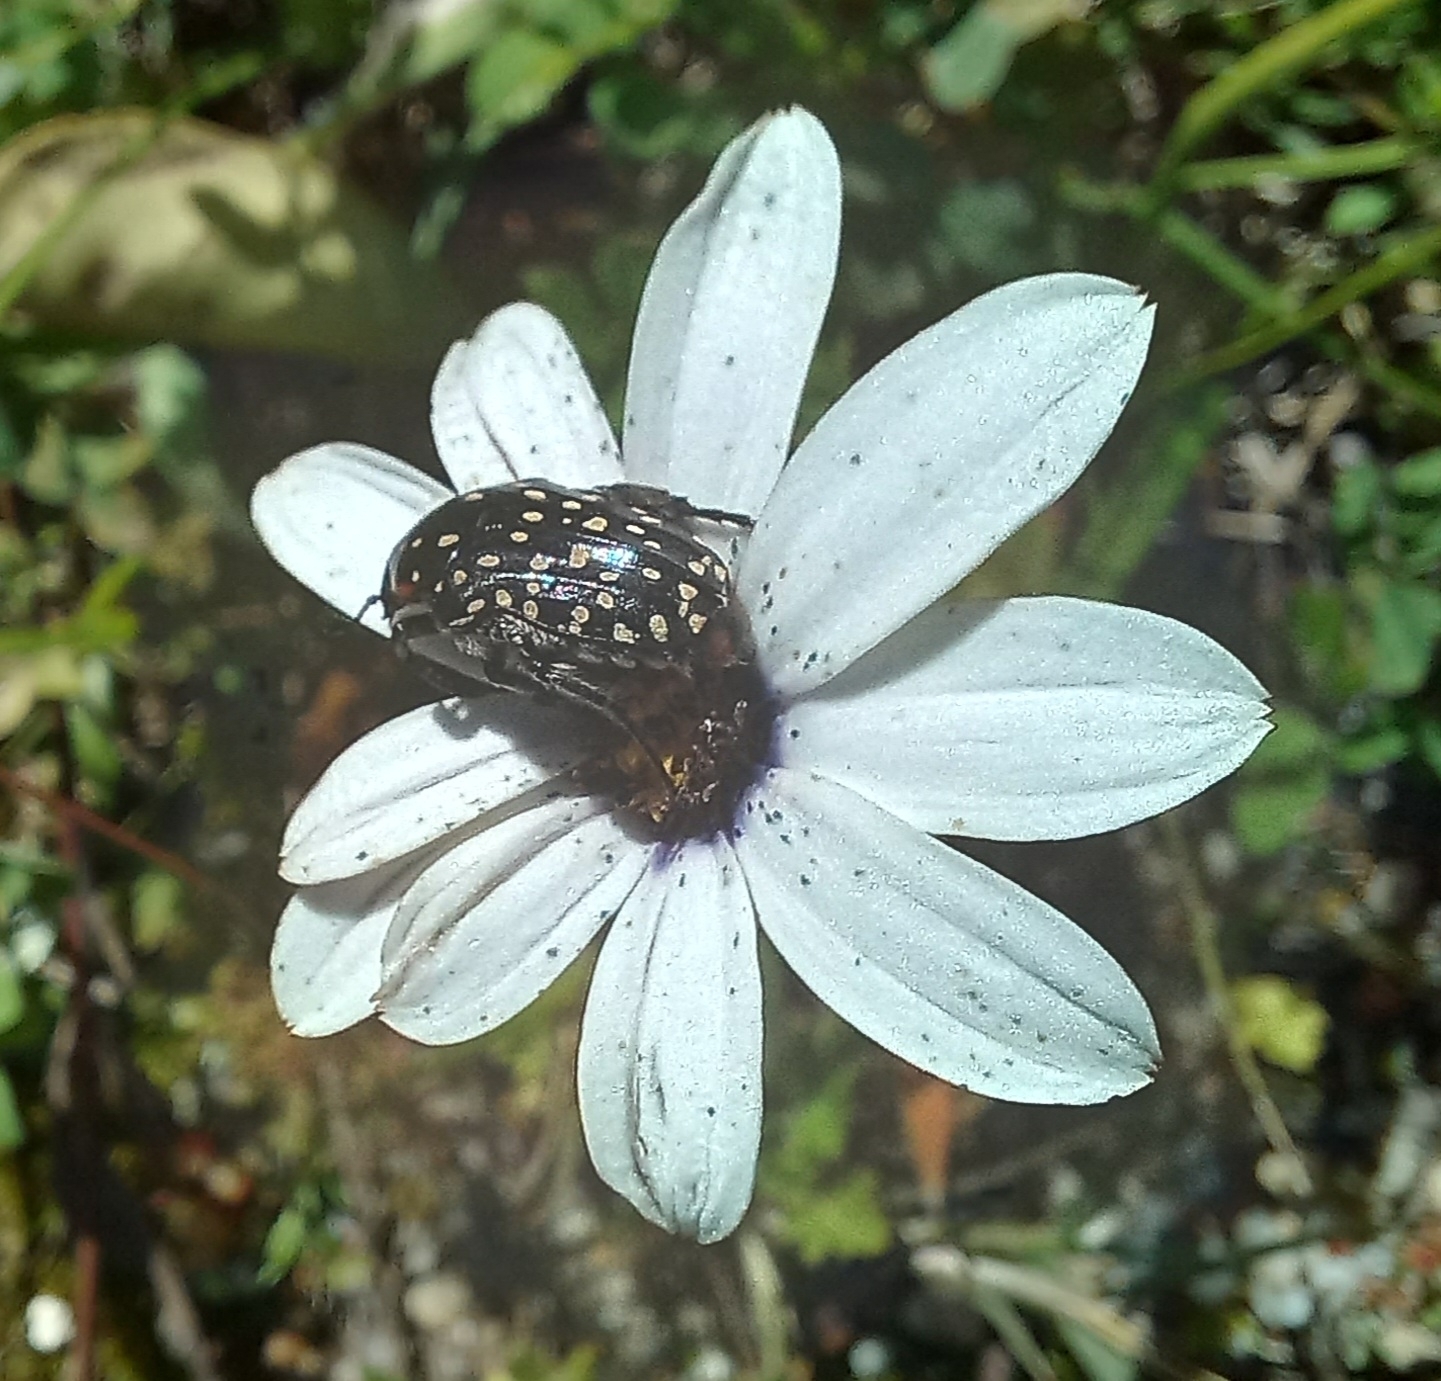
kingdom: Animalia
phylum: Arthropoda
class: Insecta
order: Coleoptera
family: Scarabaeidae
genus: Oxythyrea
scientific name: Oxythyrea
